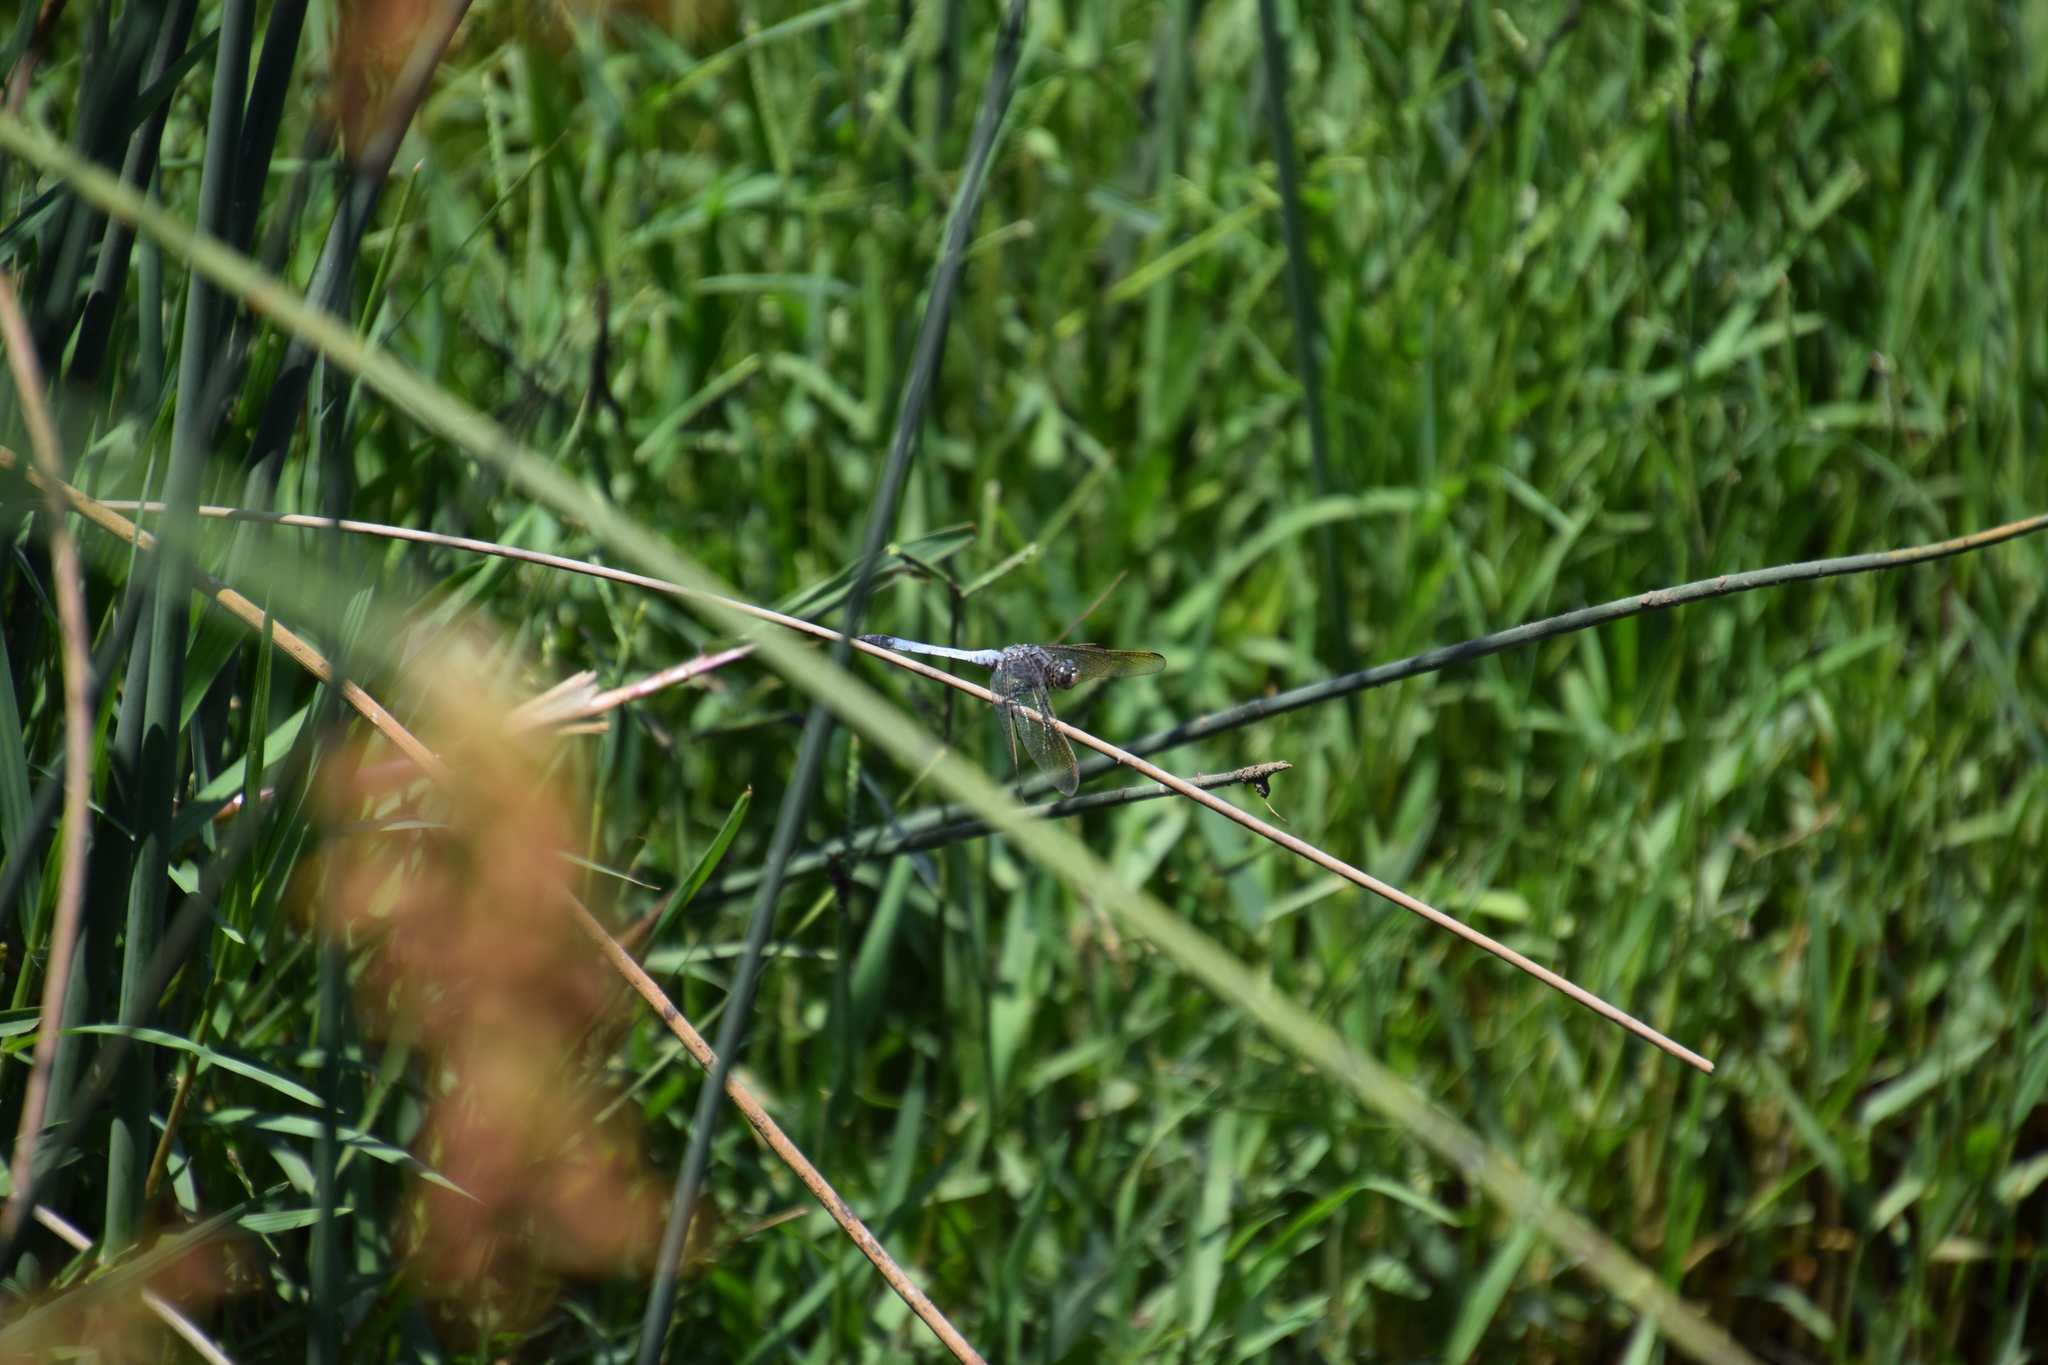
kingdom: Animalia
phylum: Arthropoda
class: Insecta
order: Odonata
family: Libellulidae
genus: Orthetrum
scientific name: Orthetrum caledonicum
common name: Blue skimmer
